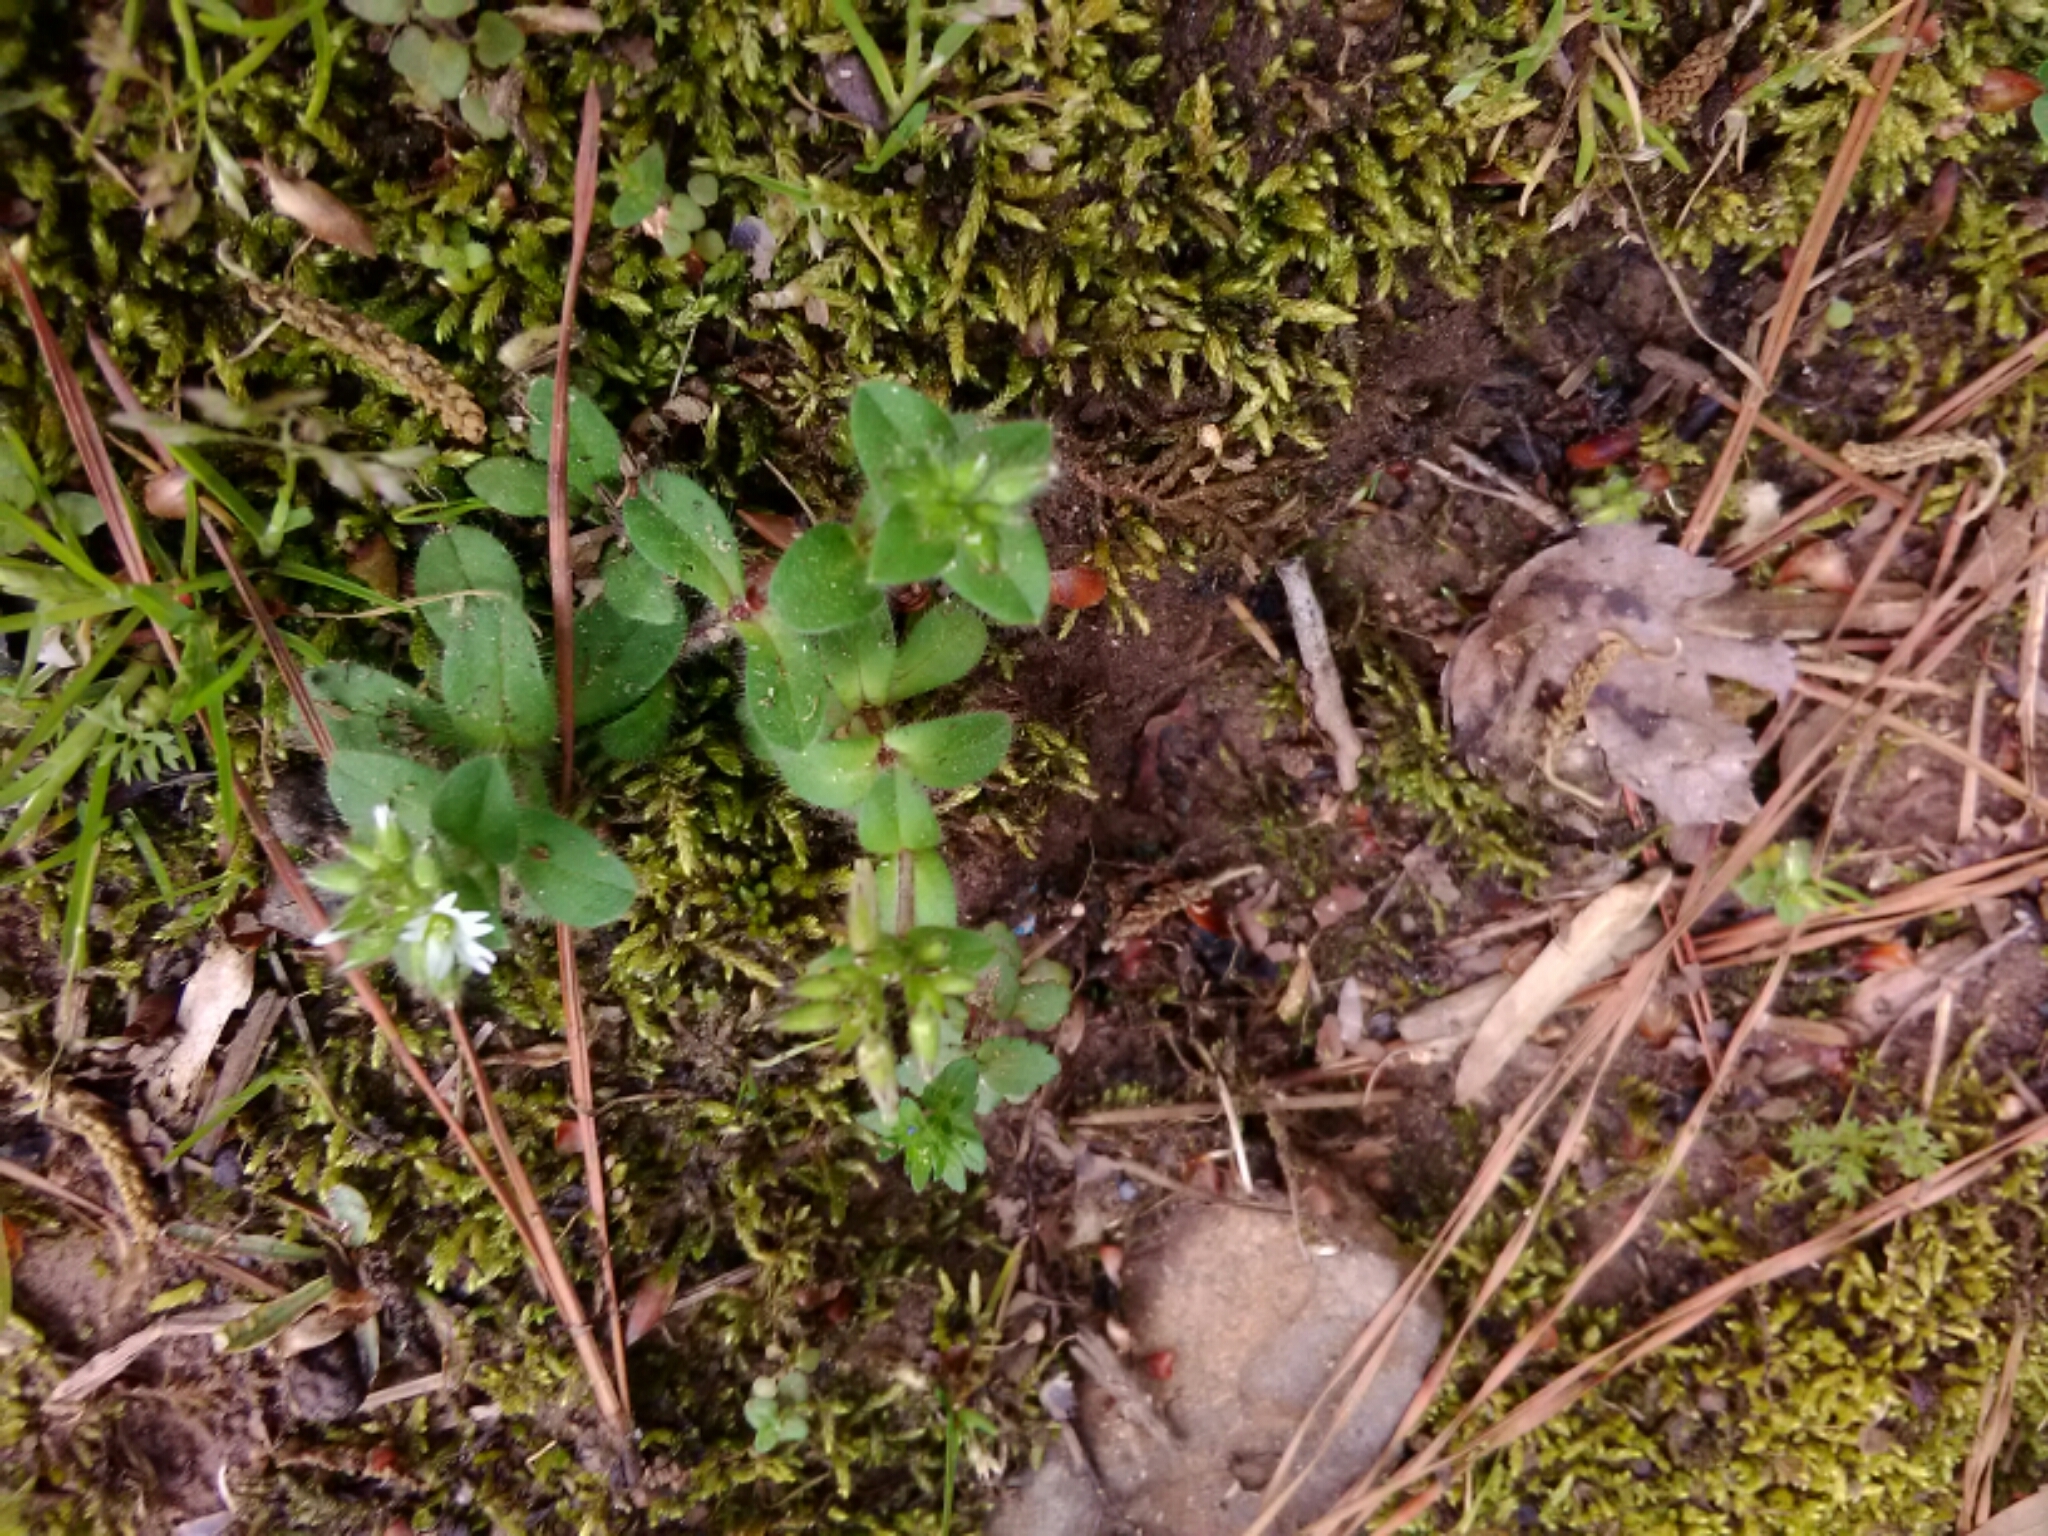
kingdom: Plantae
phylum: Tracheophyta
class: Magnoliopsida
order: Caryophyllales
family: Caryophyllaceae
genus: Stellaria
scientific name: Stellaria media
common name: Common chickweed
